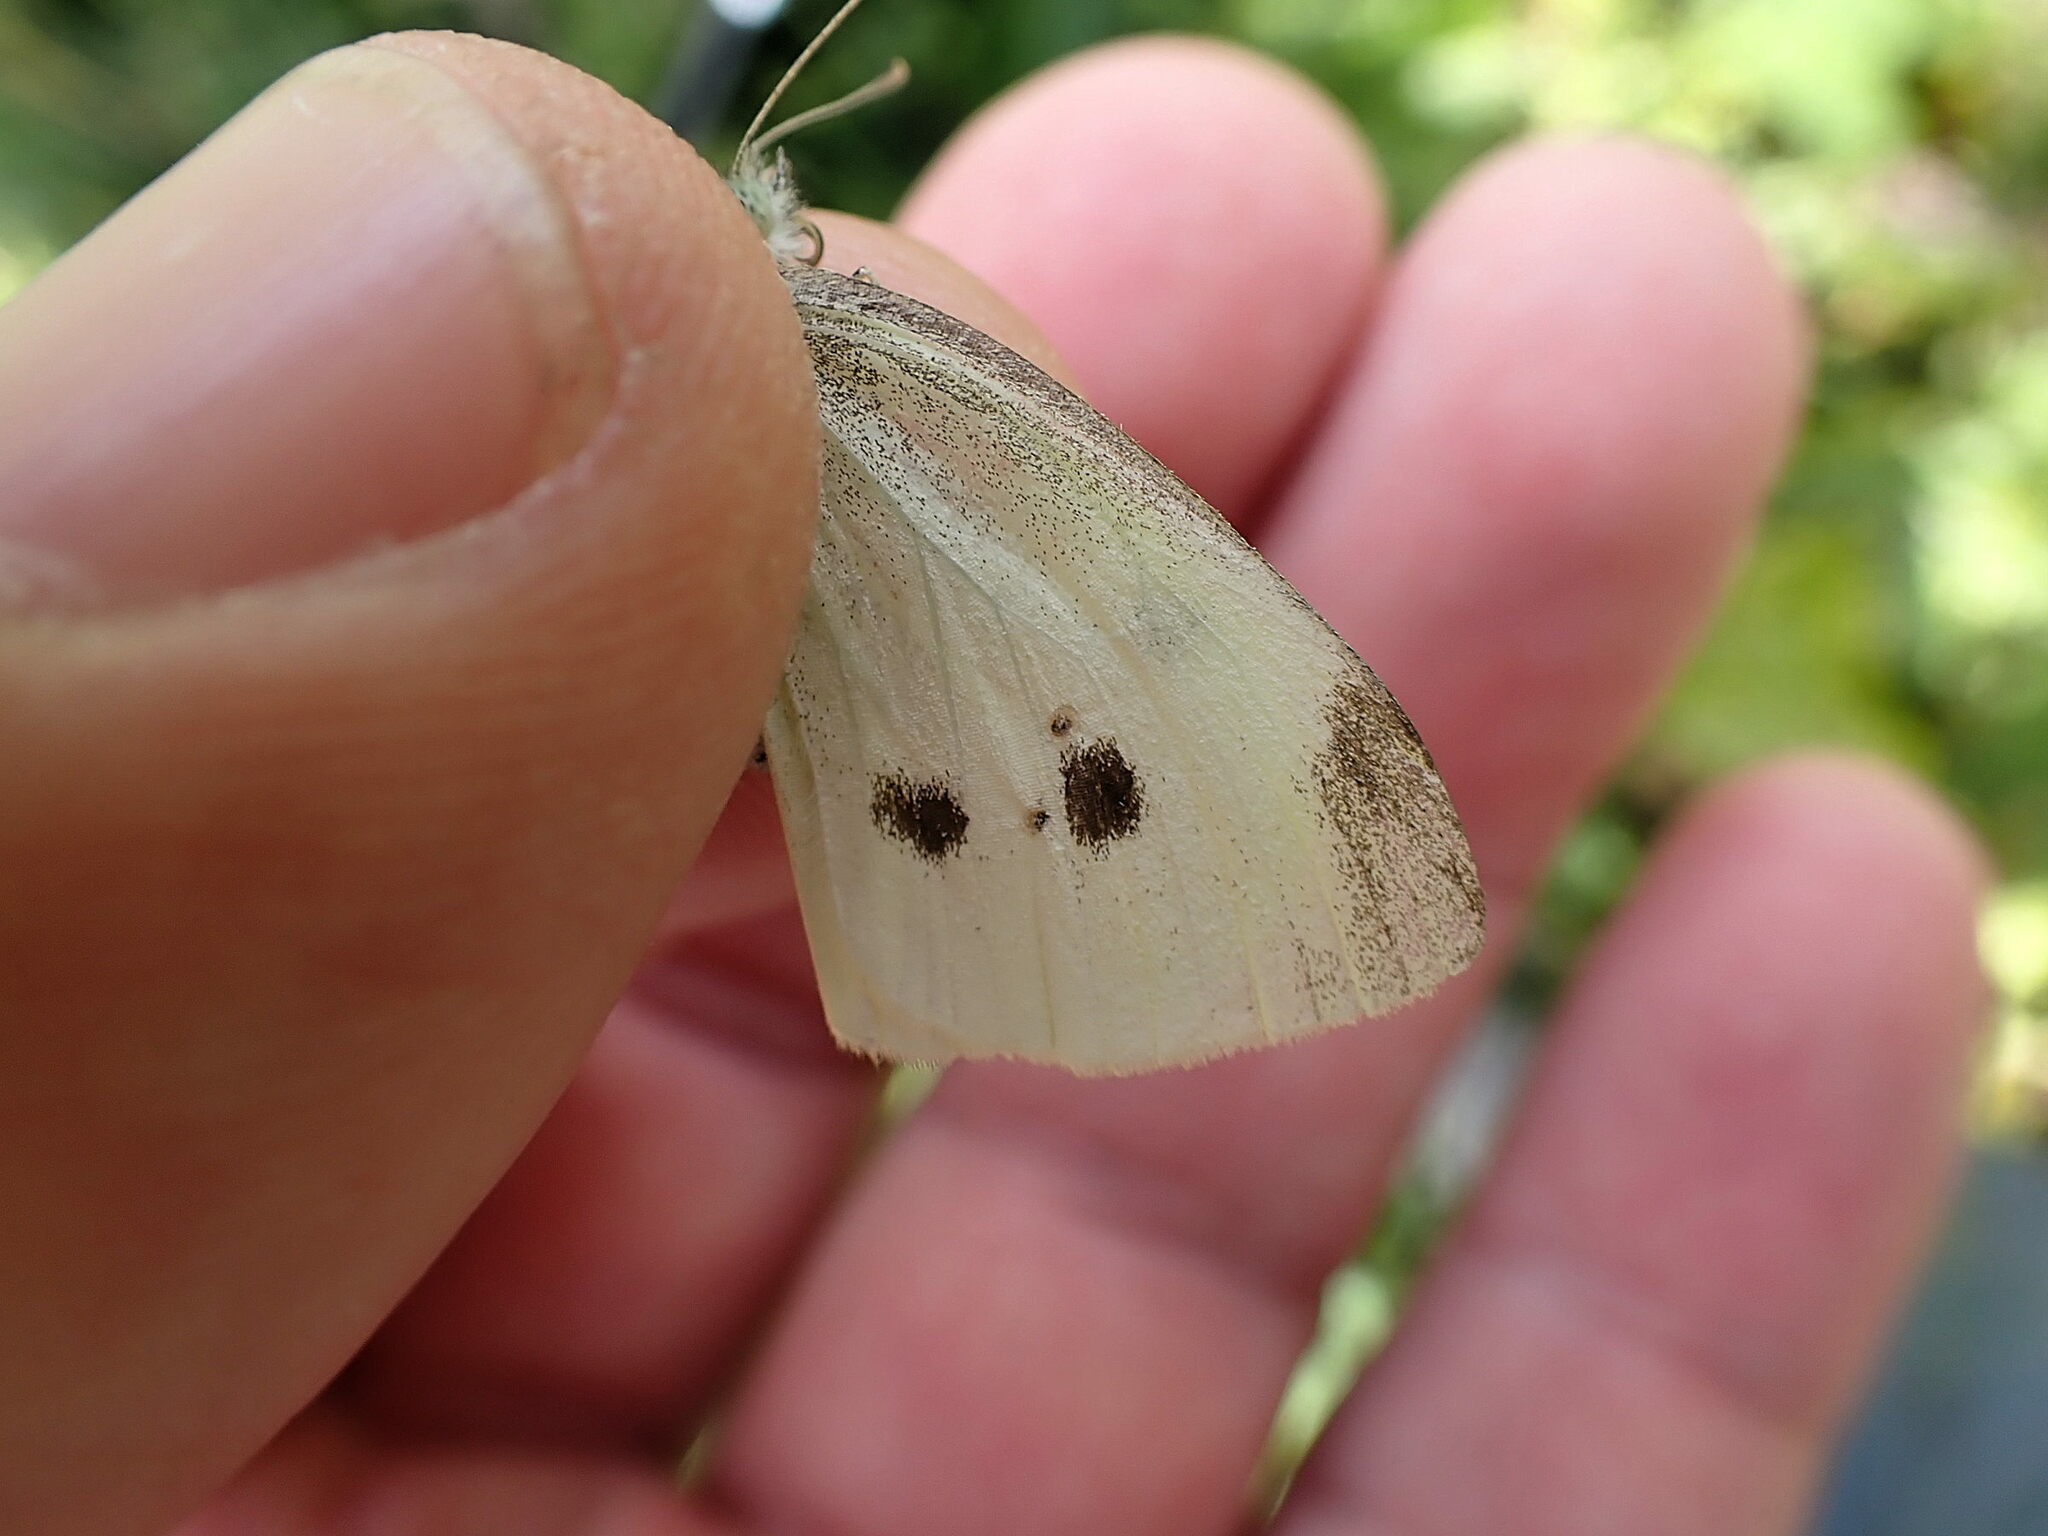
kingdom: Animalia
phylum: Arthropoda
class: Insecta
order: Lepidoptera
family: Pieridae
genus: Pieris
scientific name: Pieris rapae
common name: Small white
